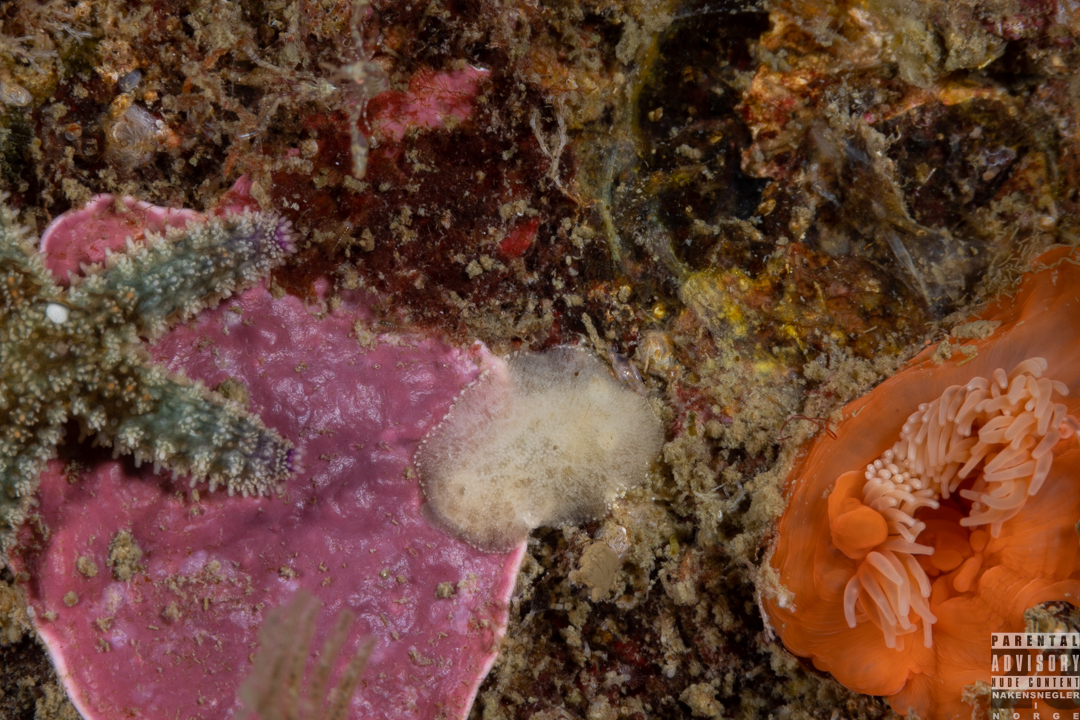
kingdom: Animalia
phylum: Mollusca
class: Gastropoda
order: Nudibranchia
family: Discodorididae
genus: Jorunna
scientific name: Jorunna tomentosa
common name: Grey sea slug
